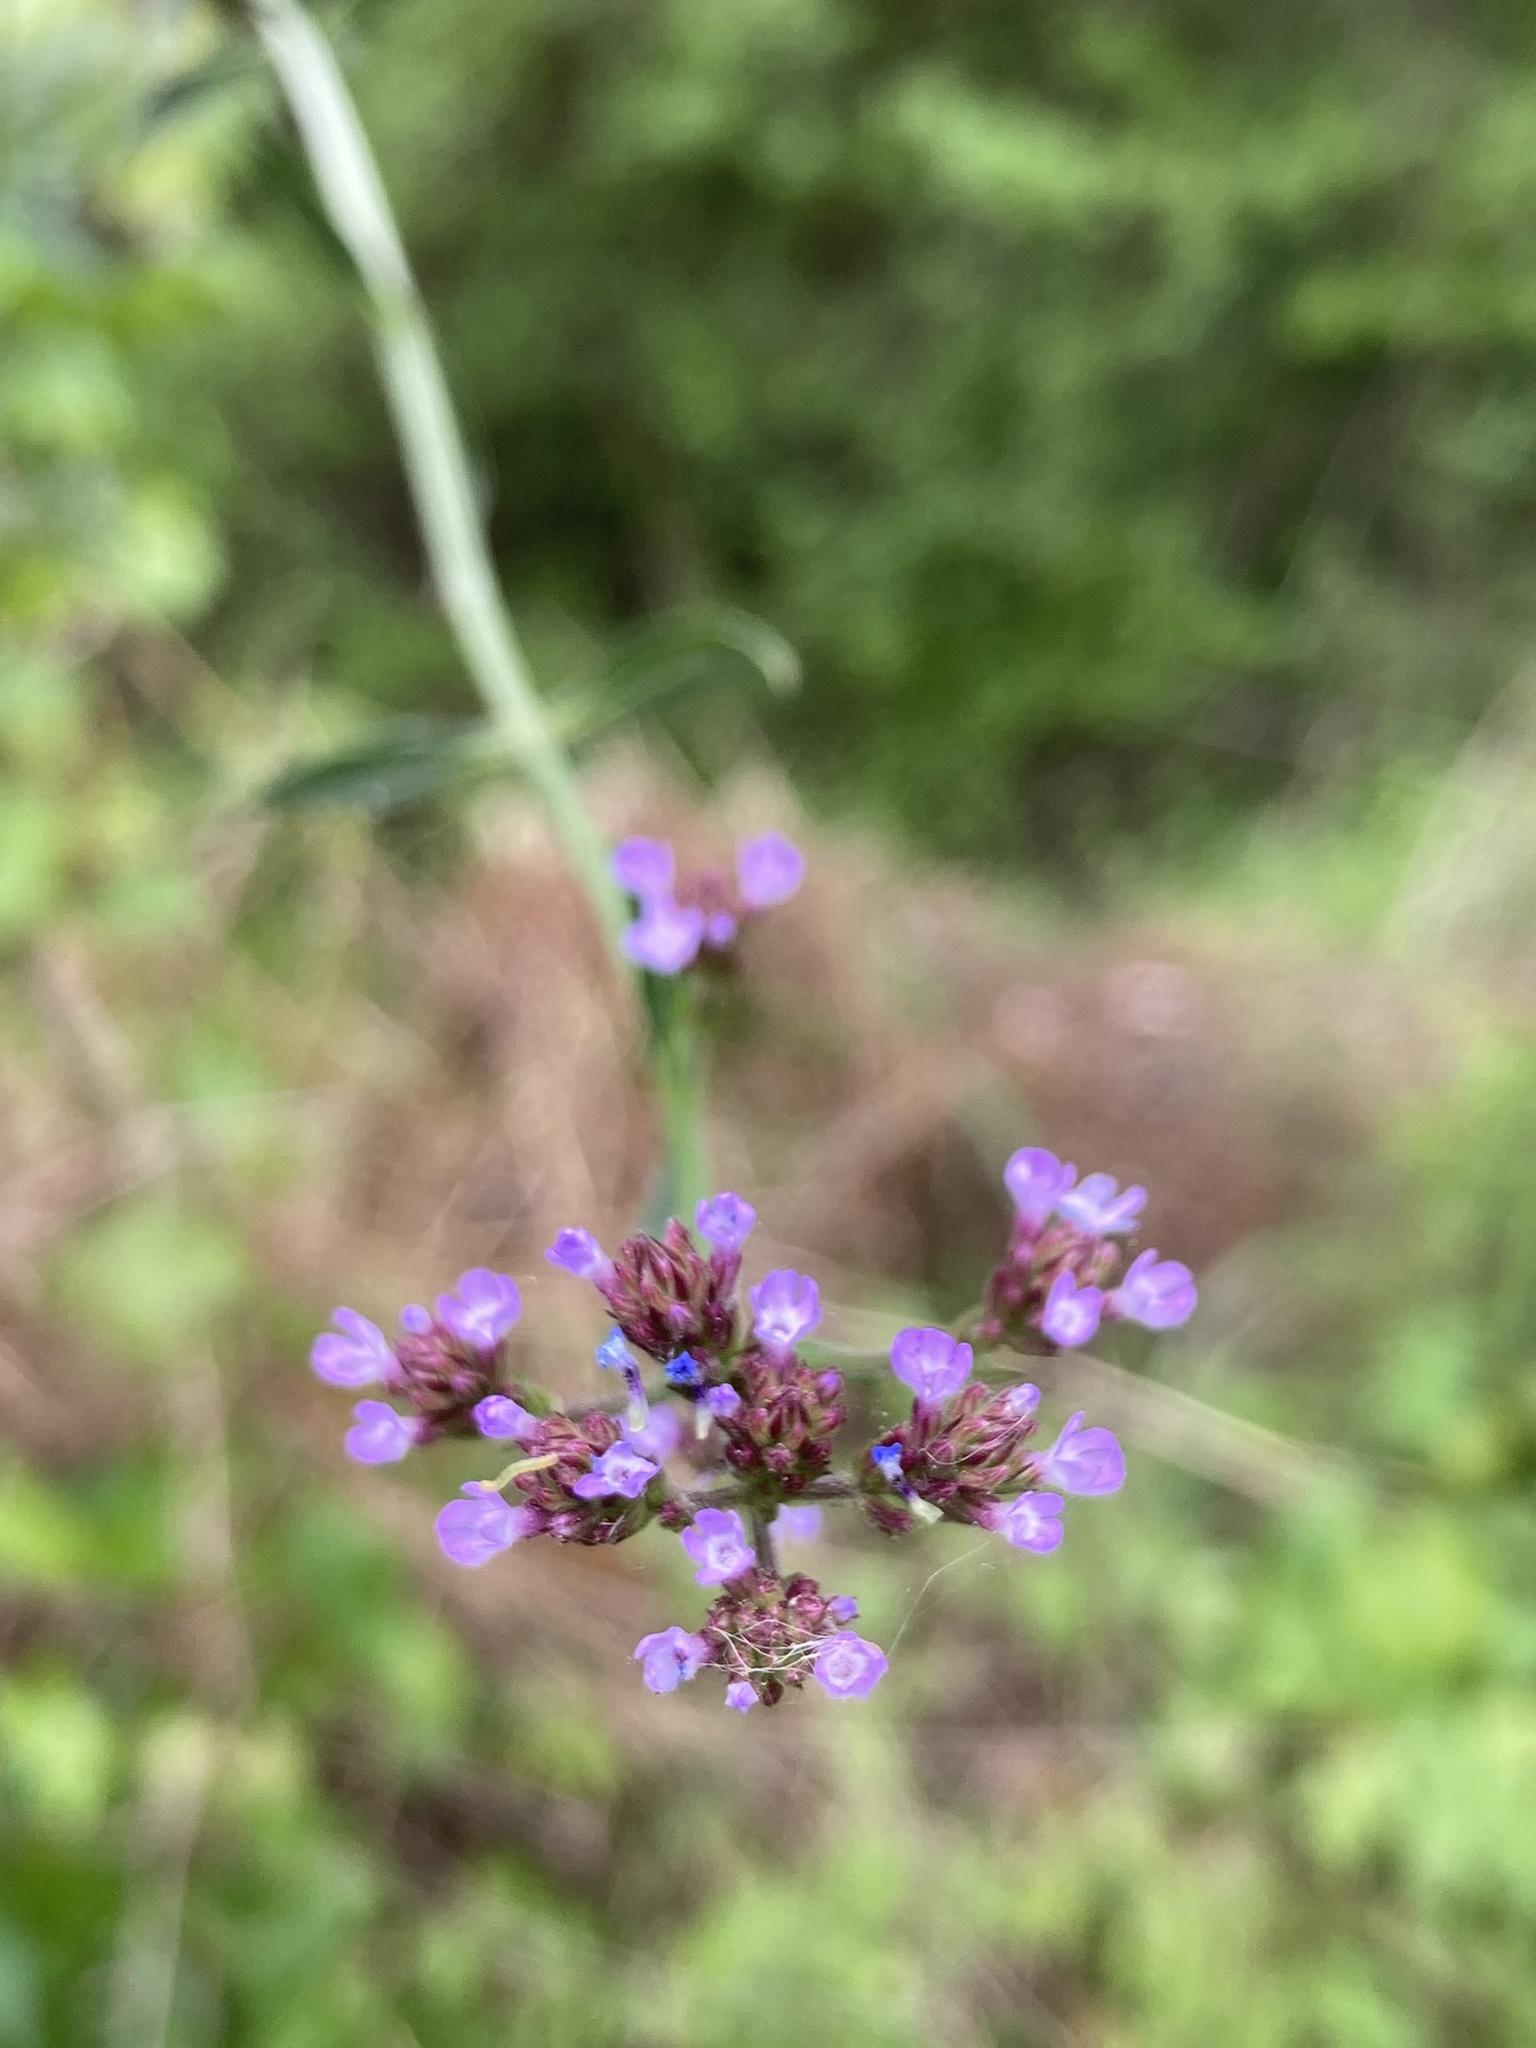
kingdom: Plantae
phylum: Tracheophyta
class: Magnoliopsida
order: Lamiales
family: Verbenaceae
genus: Verbena
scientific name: Verbena brasiliensis
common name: Brazilian vervain
